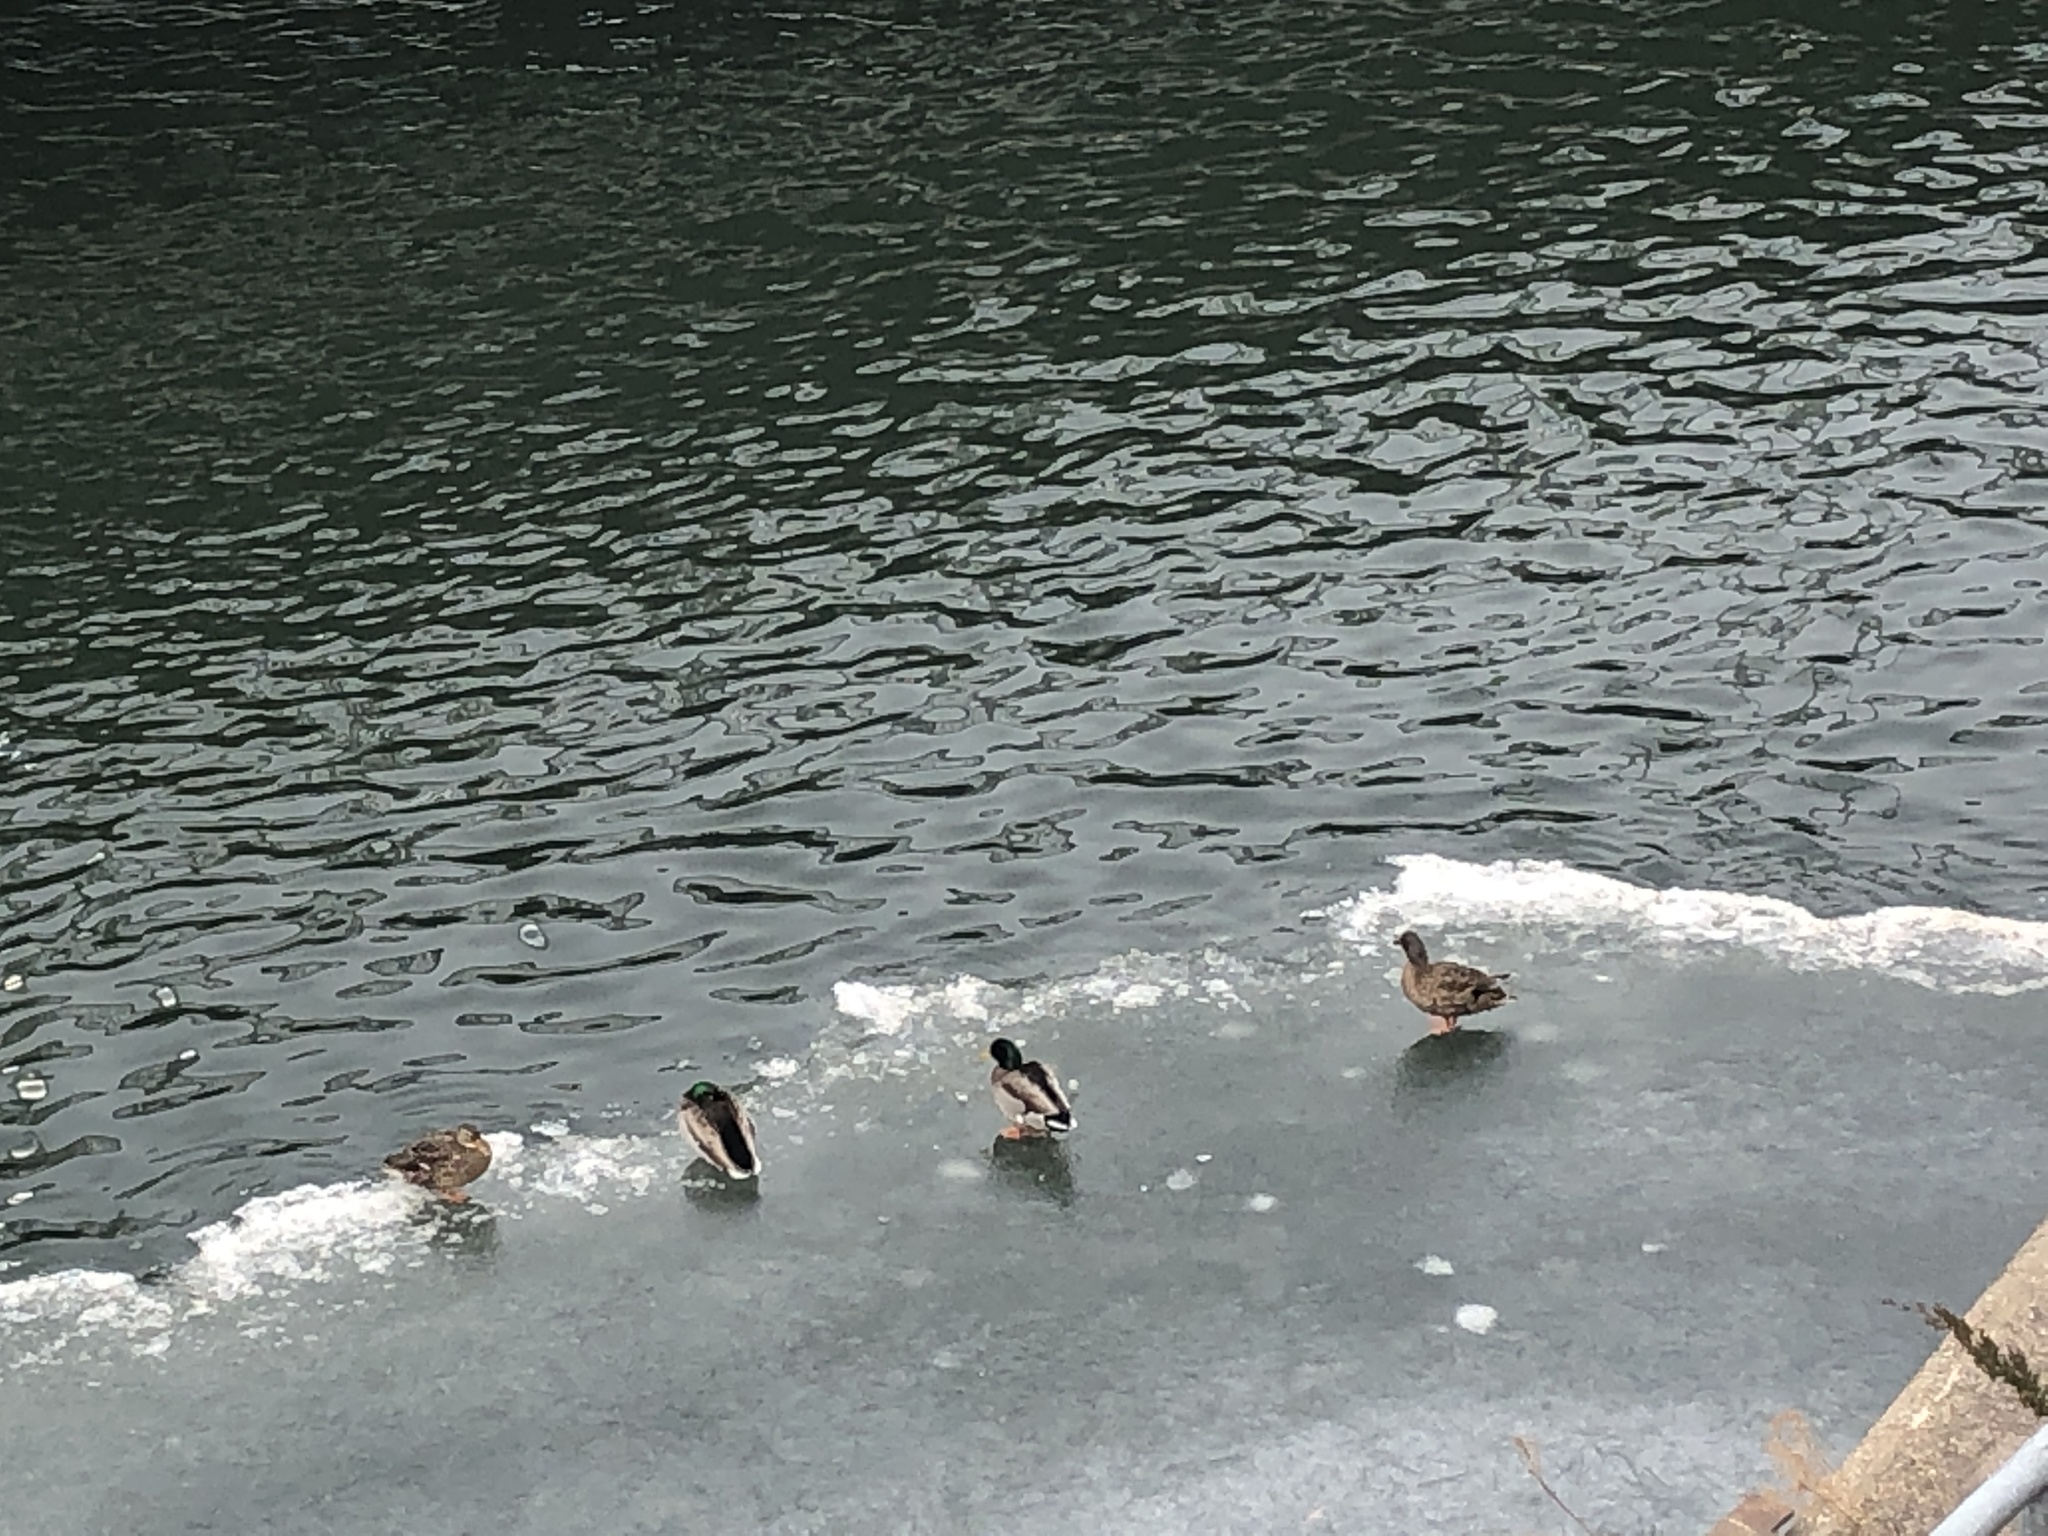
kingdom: Animalia
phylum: Chordata
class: Aves
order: Anseriformes
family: Anatidae
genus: Anas
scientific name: Anas platyrhynchos
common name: Mallard
